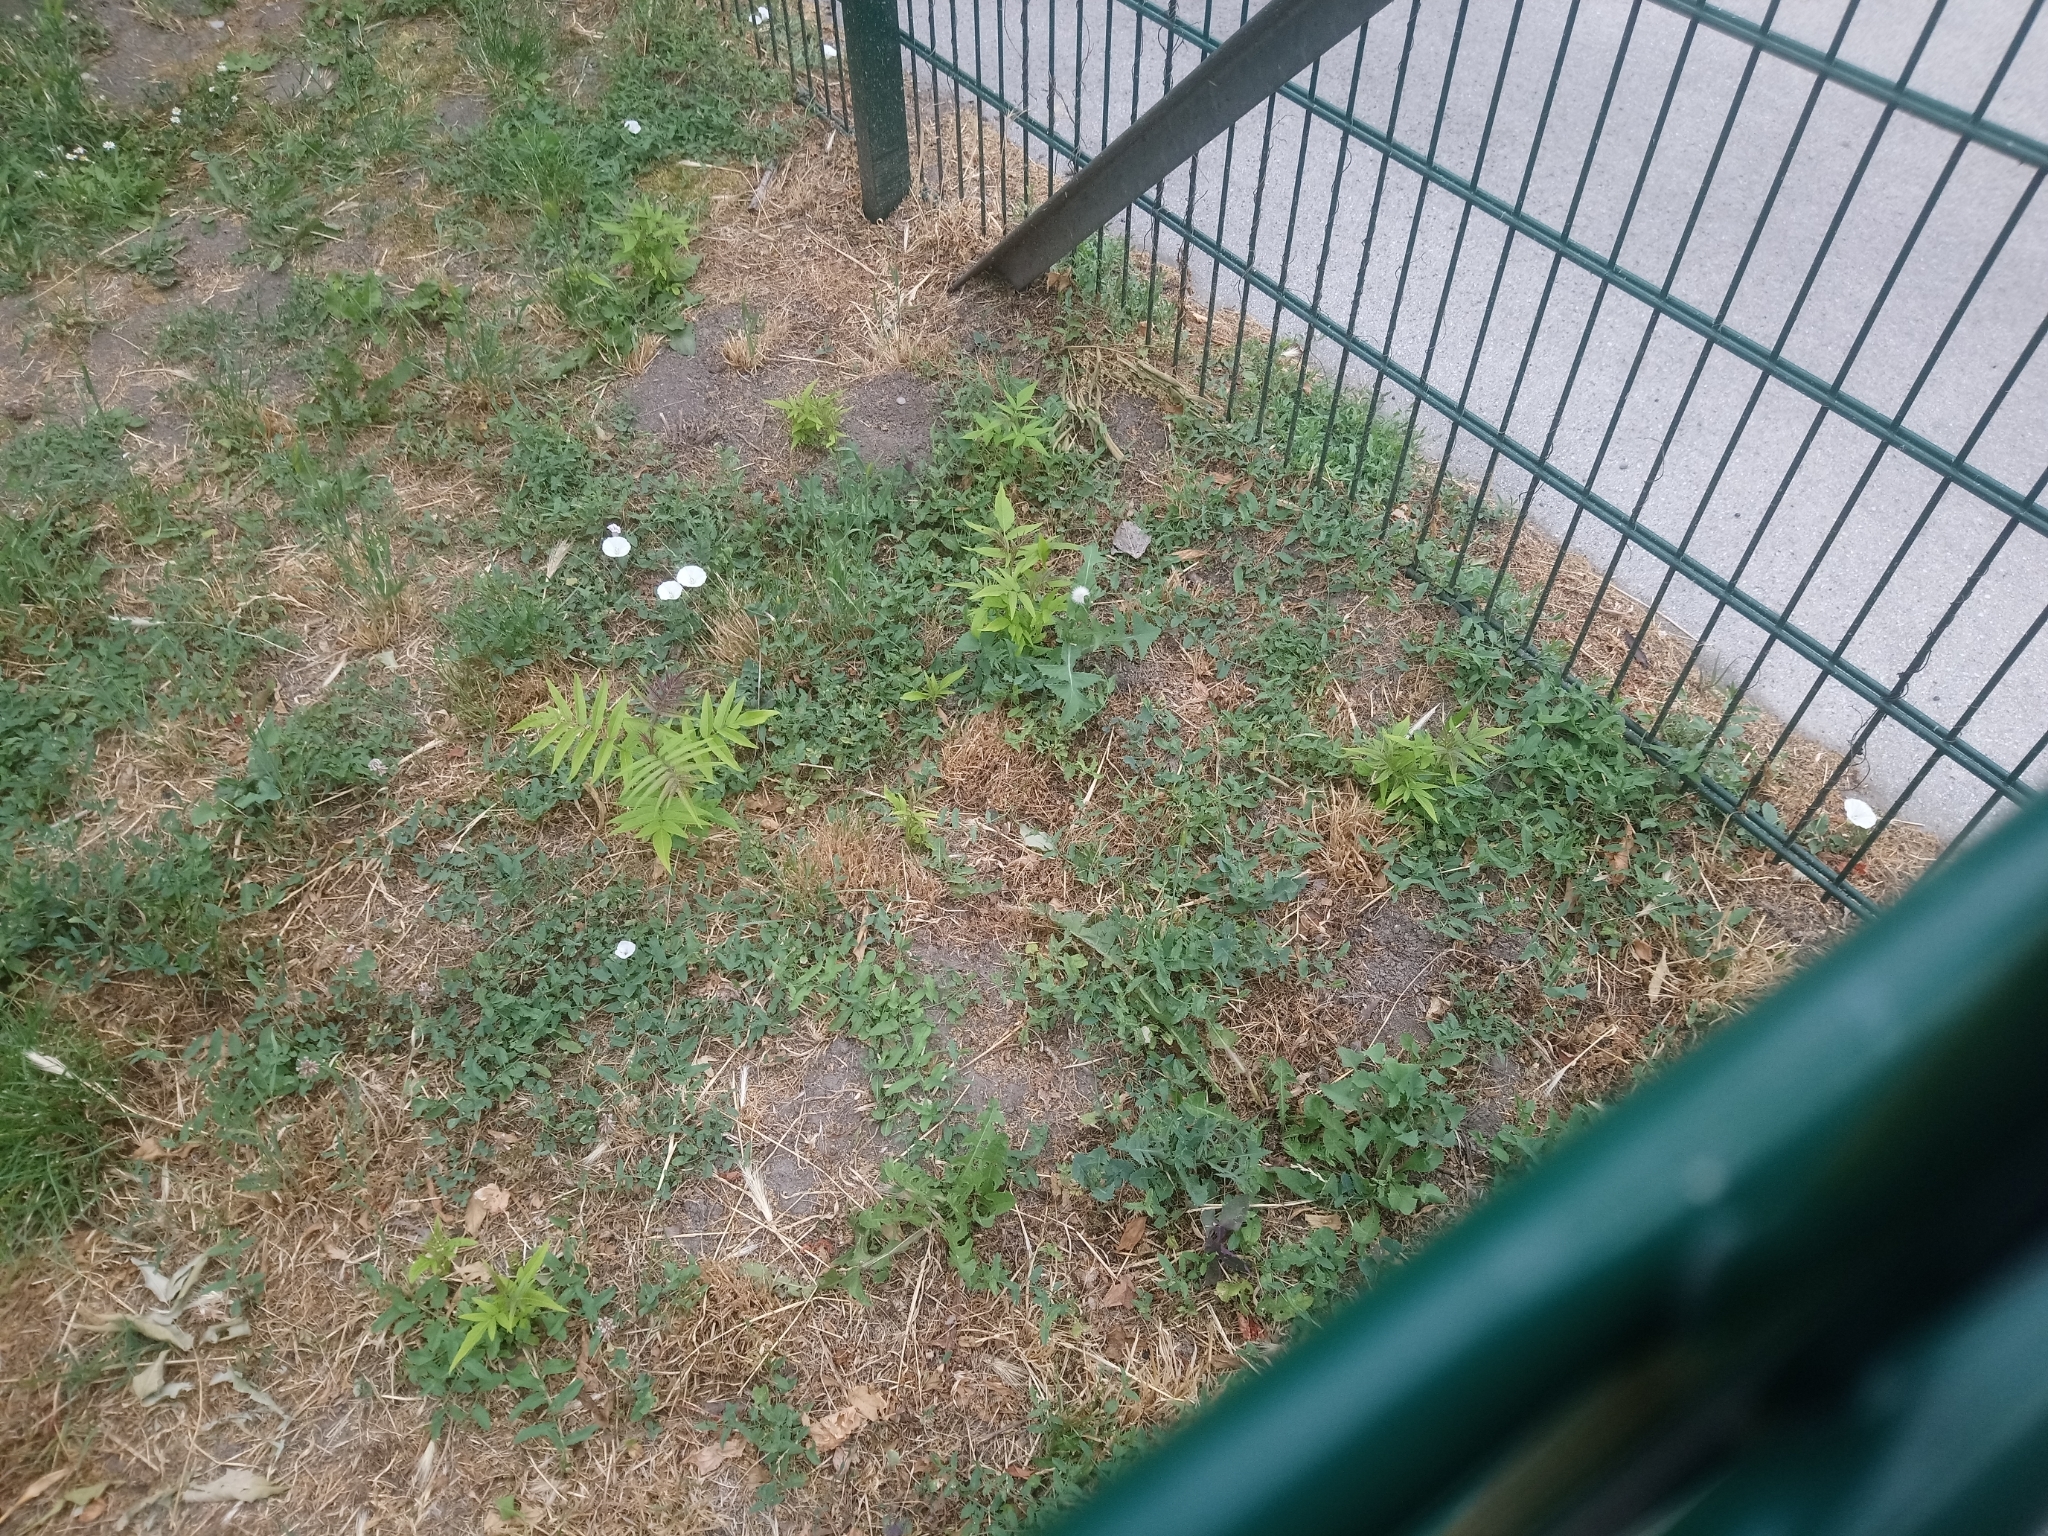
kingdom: Plantae
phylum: Tracheophyta
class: Magnoliopsida
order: Sapindales
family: Simaroubaceae
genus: Ailanthus
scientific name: Ailanthus altissima
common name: Tree-of-heaven
